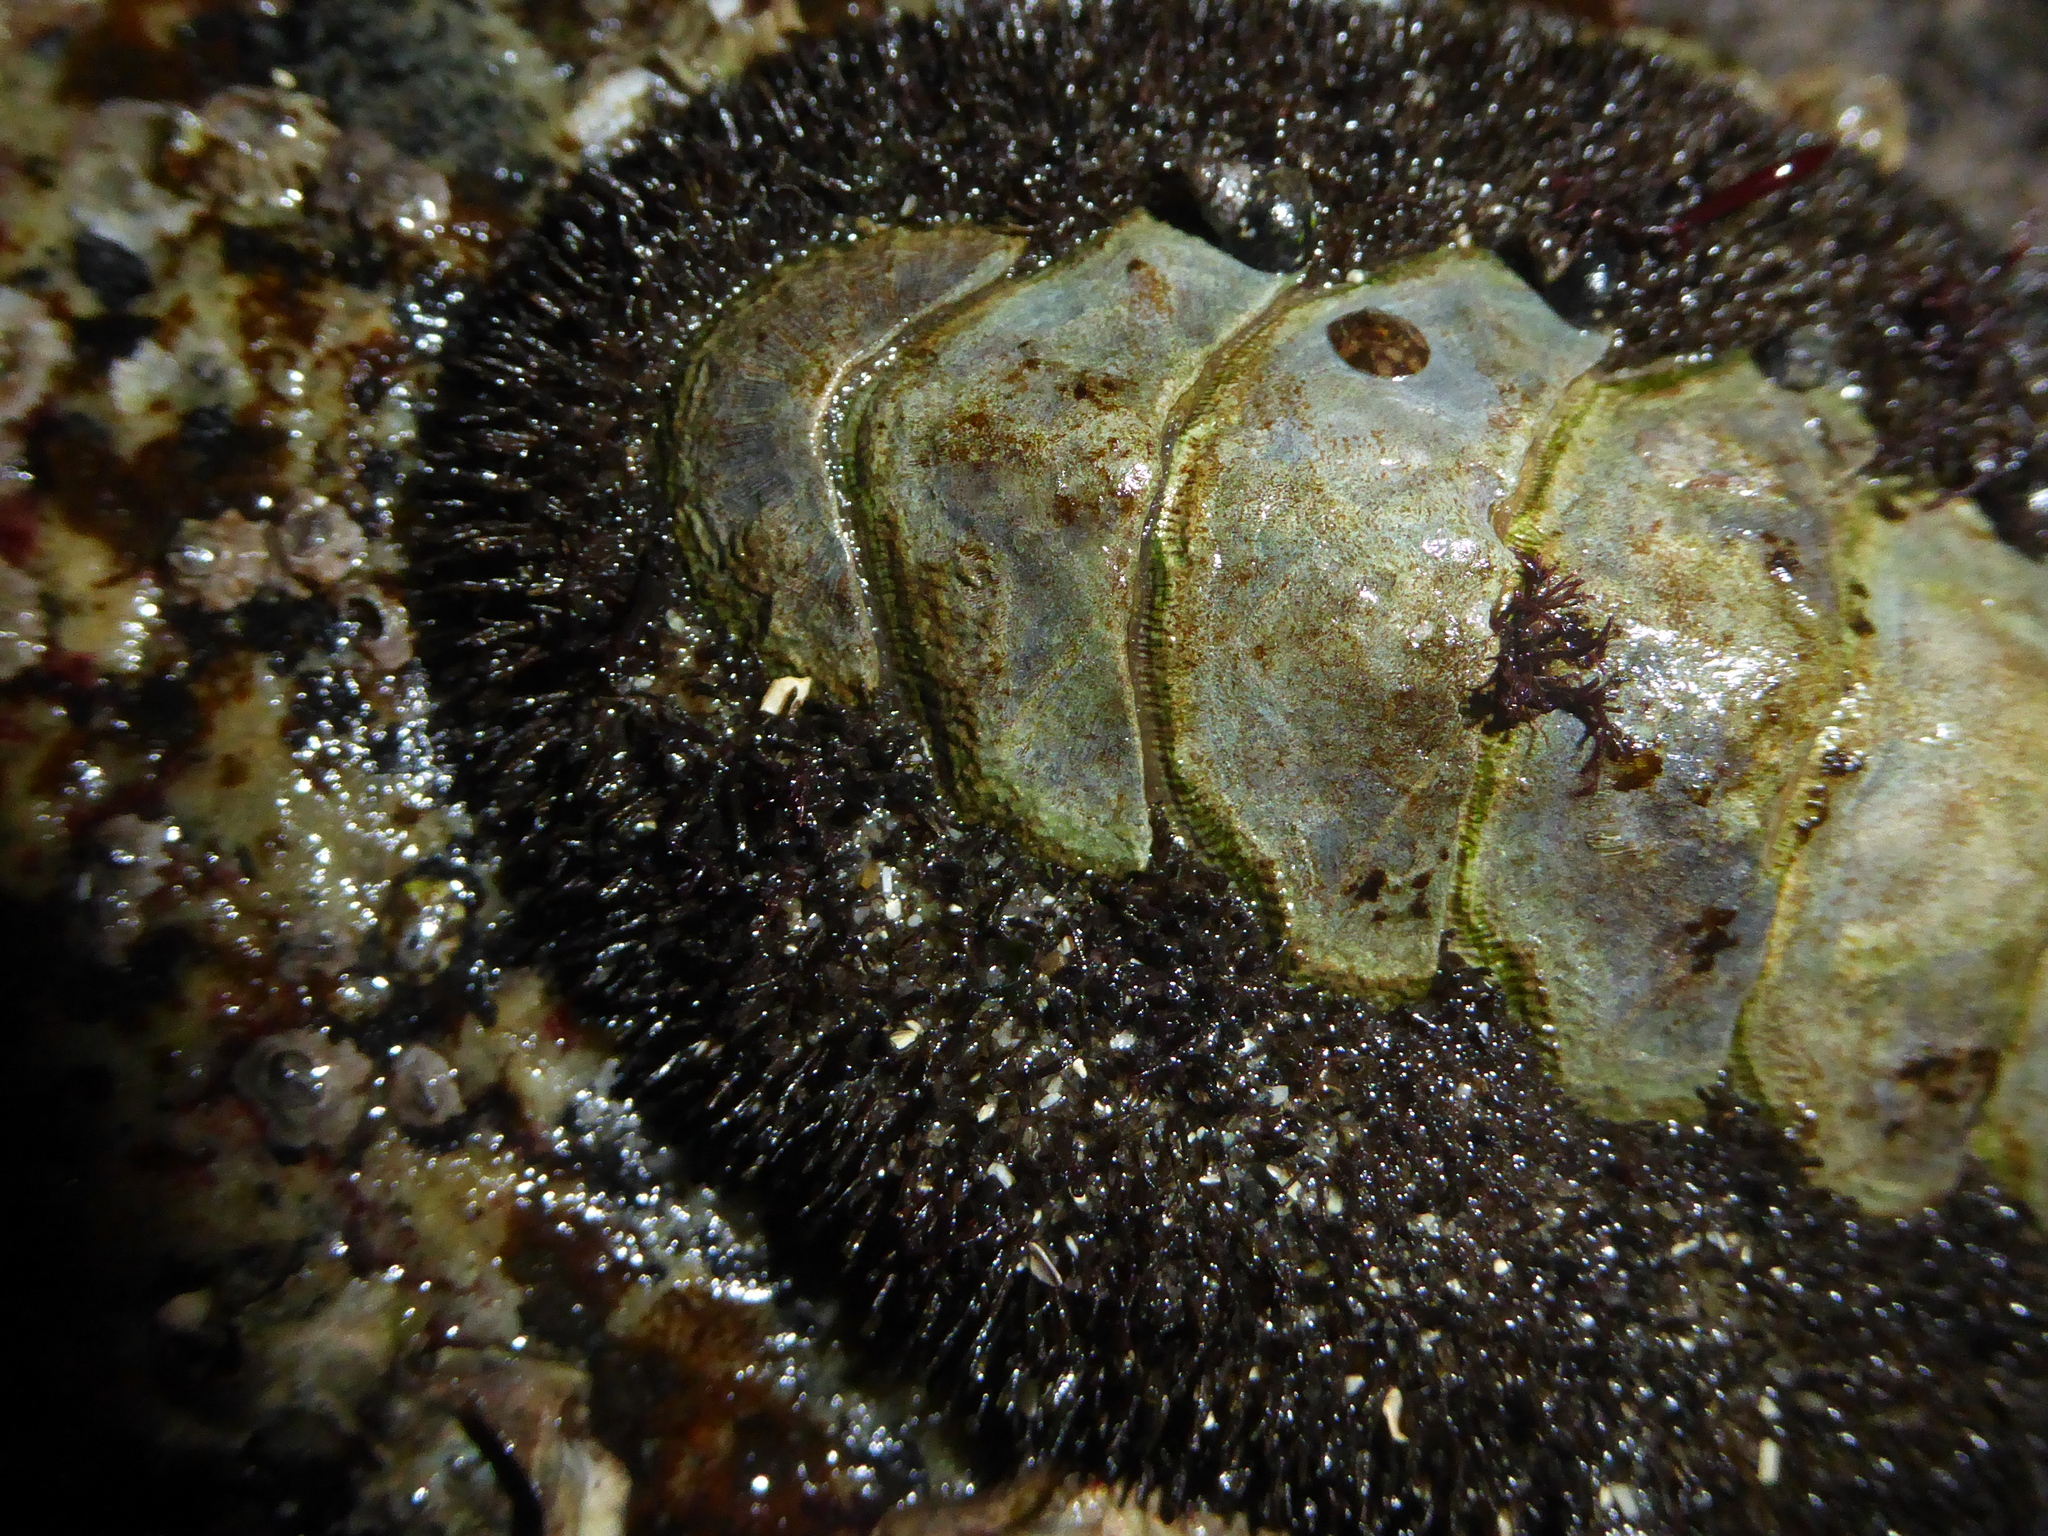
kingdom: Animalia
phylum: Mollusca
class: Polyplacophora
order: Chitonida
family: Mopaliidae
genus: Mopalia
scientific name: Mopalia muscosa
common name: Mossy chiton
